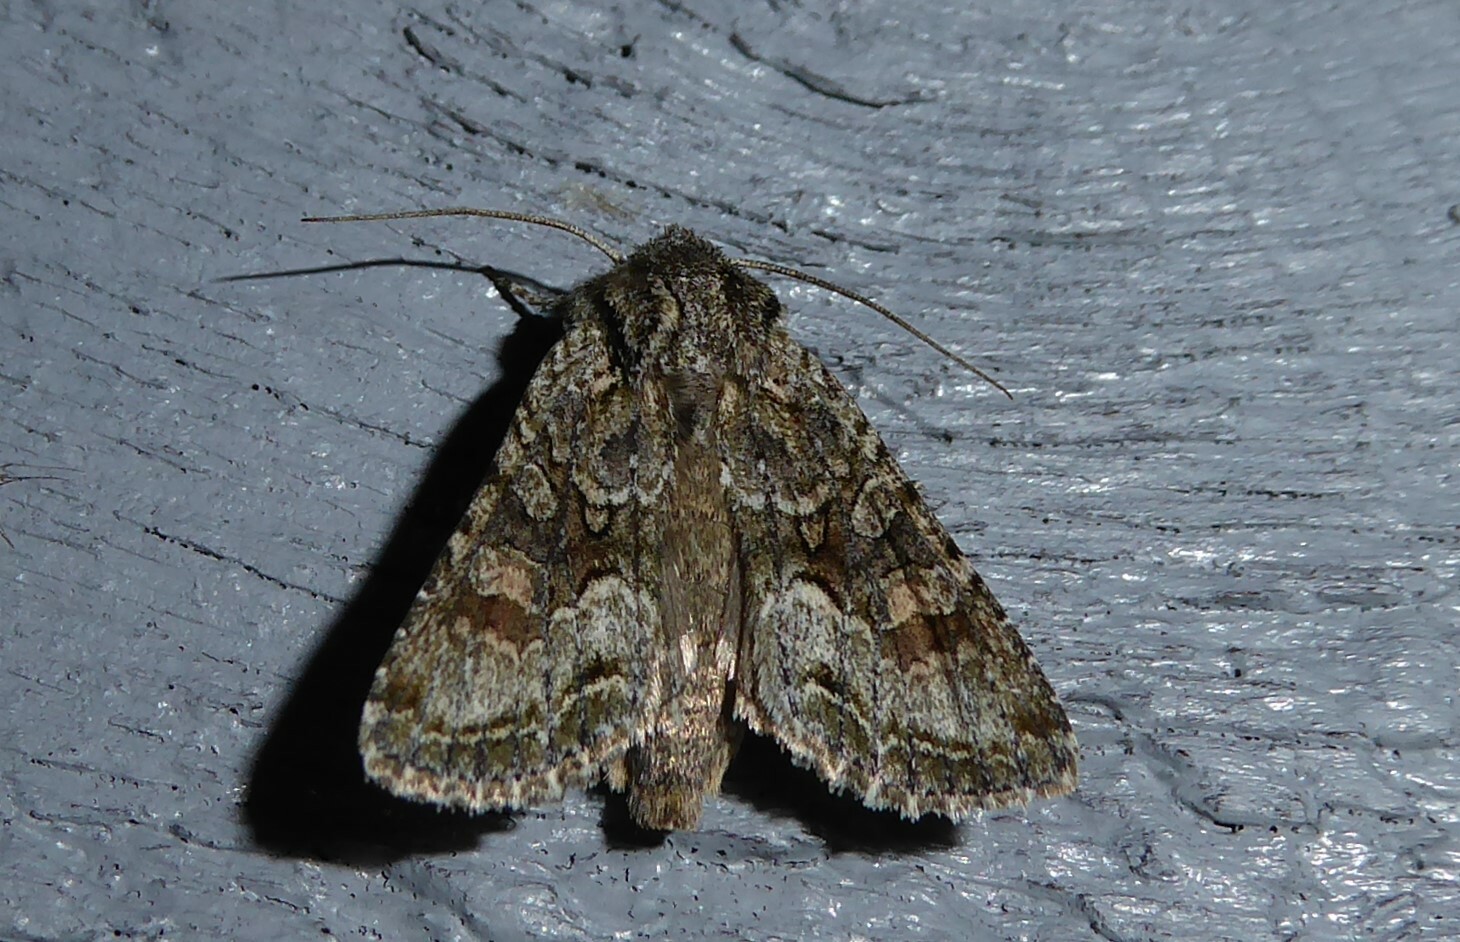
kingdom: Animalia
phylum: Arthropoda
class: Insecta
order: Lepidoptera
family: Noctuidae
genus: Ichneutica
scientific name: Ichneutica mutans
